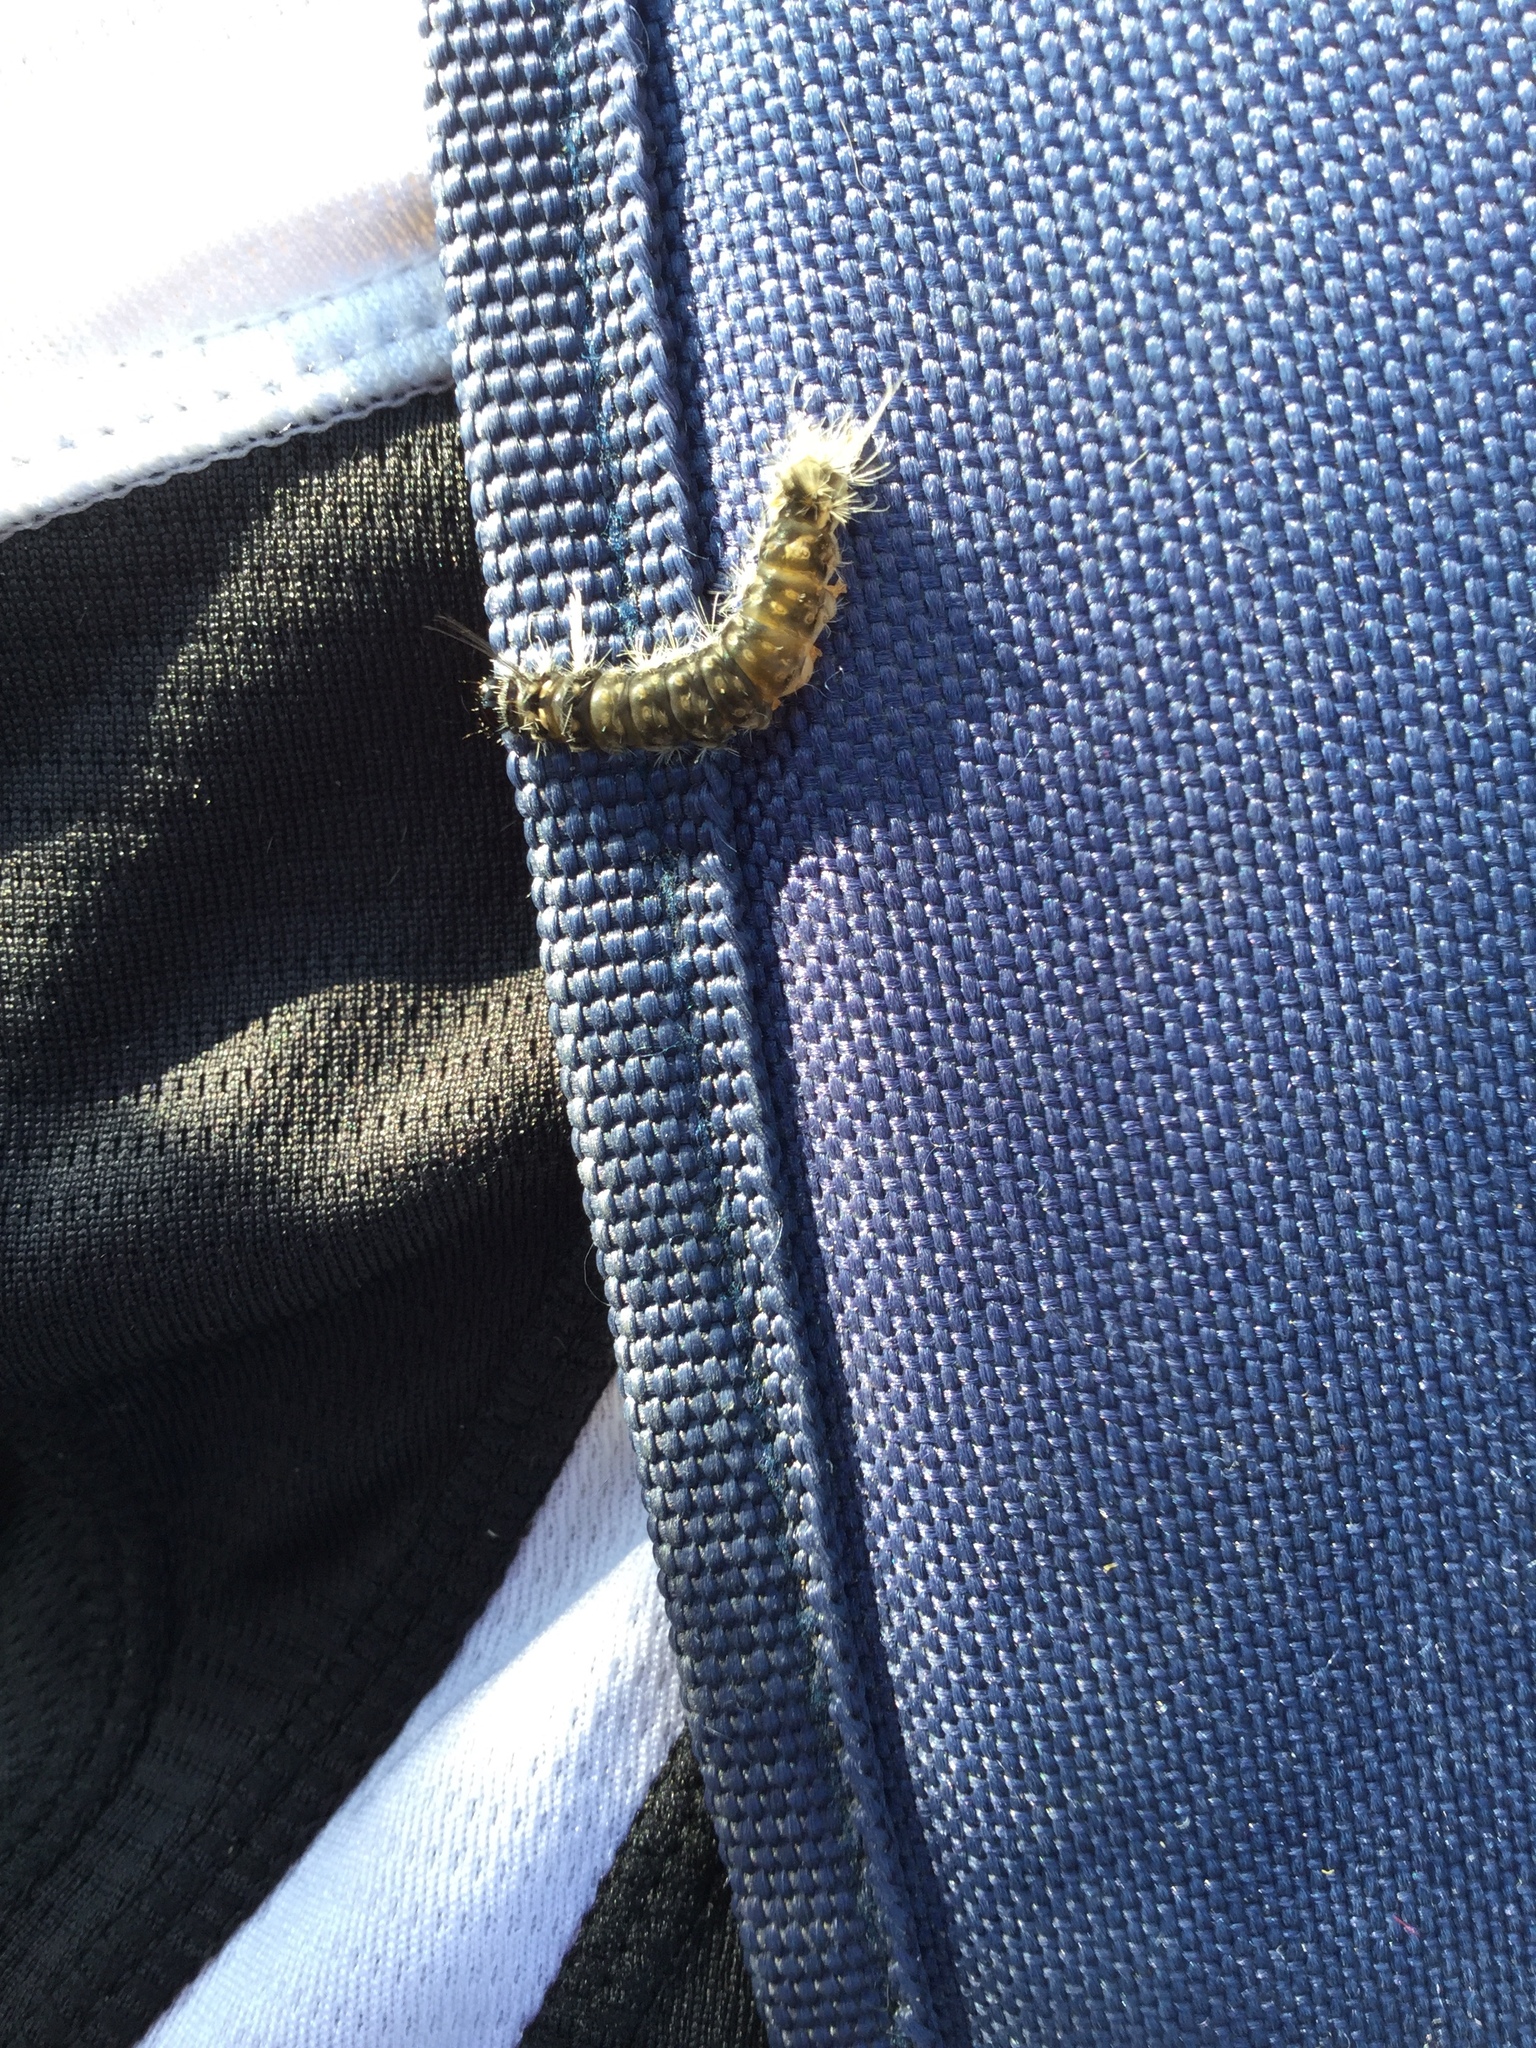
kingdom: Animalia
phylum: Arthropoda
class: Insecta
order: Lepidoptera
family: Erebidae
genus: Halysidota
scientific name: Halysidota tessellaris
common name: Banded tussock moth
